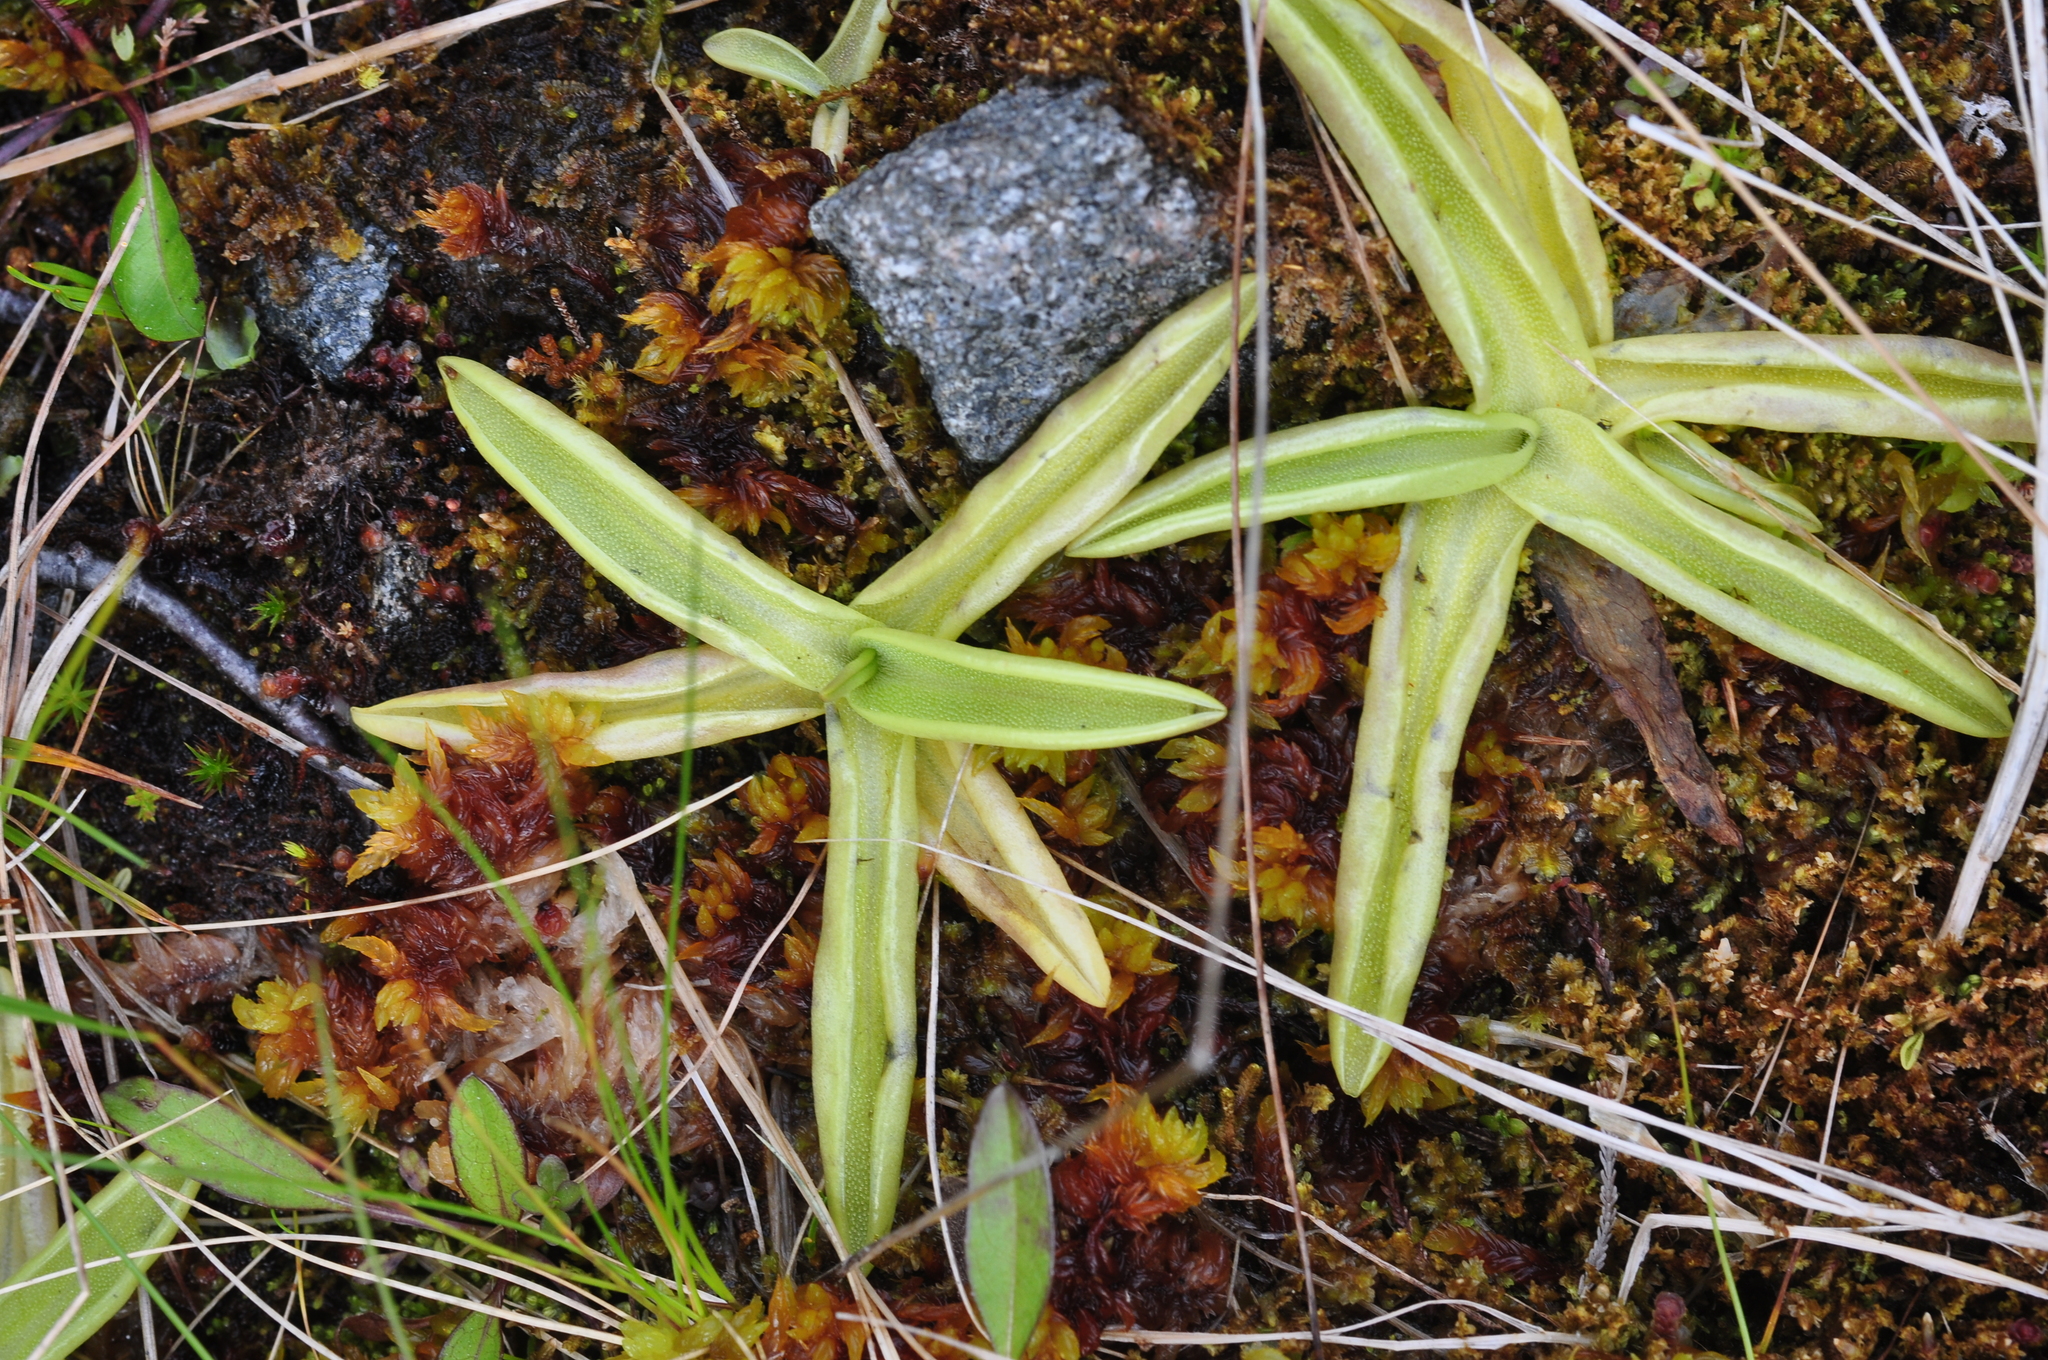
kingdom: Plantae
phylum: Tracheophyta
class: Magnoliopsida
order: Lamiales
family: Lentibulariaceae
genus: Pinguicula
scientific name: Pinguicula vulgaris
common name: Common butterwort
